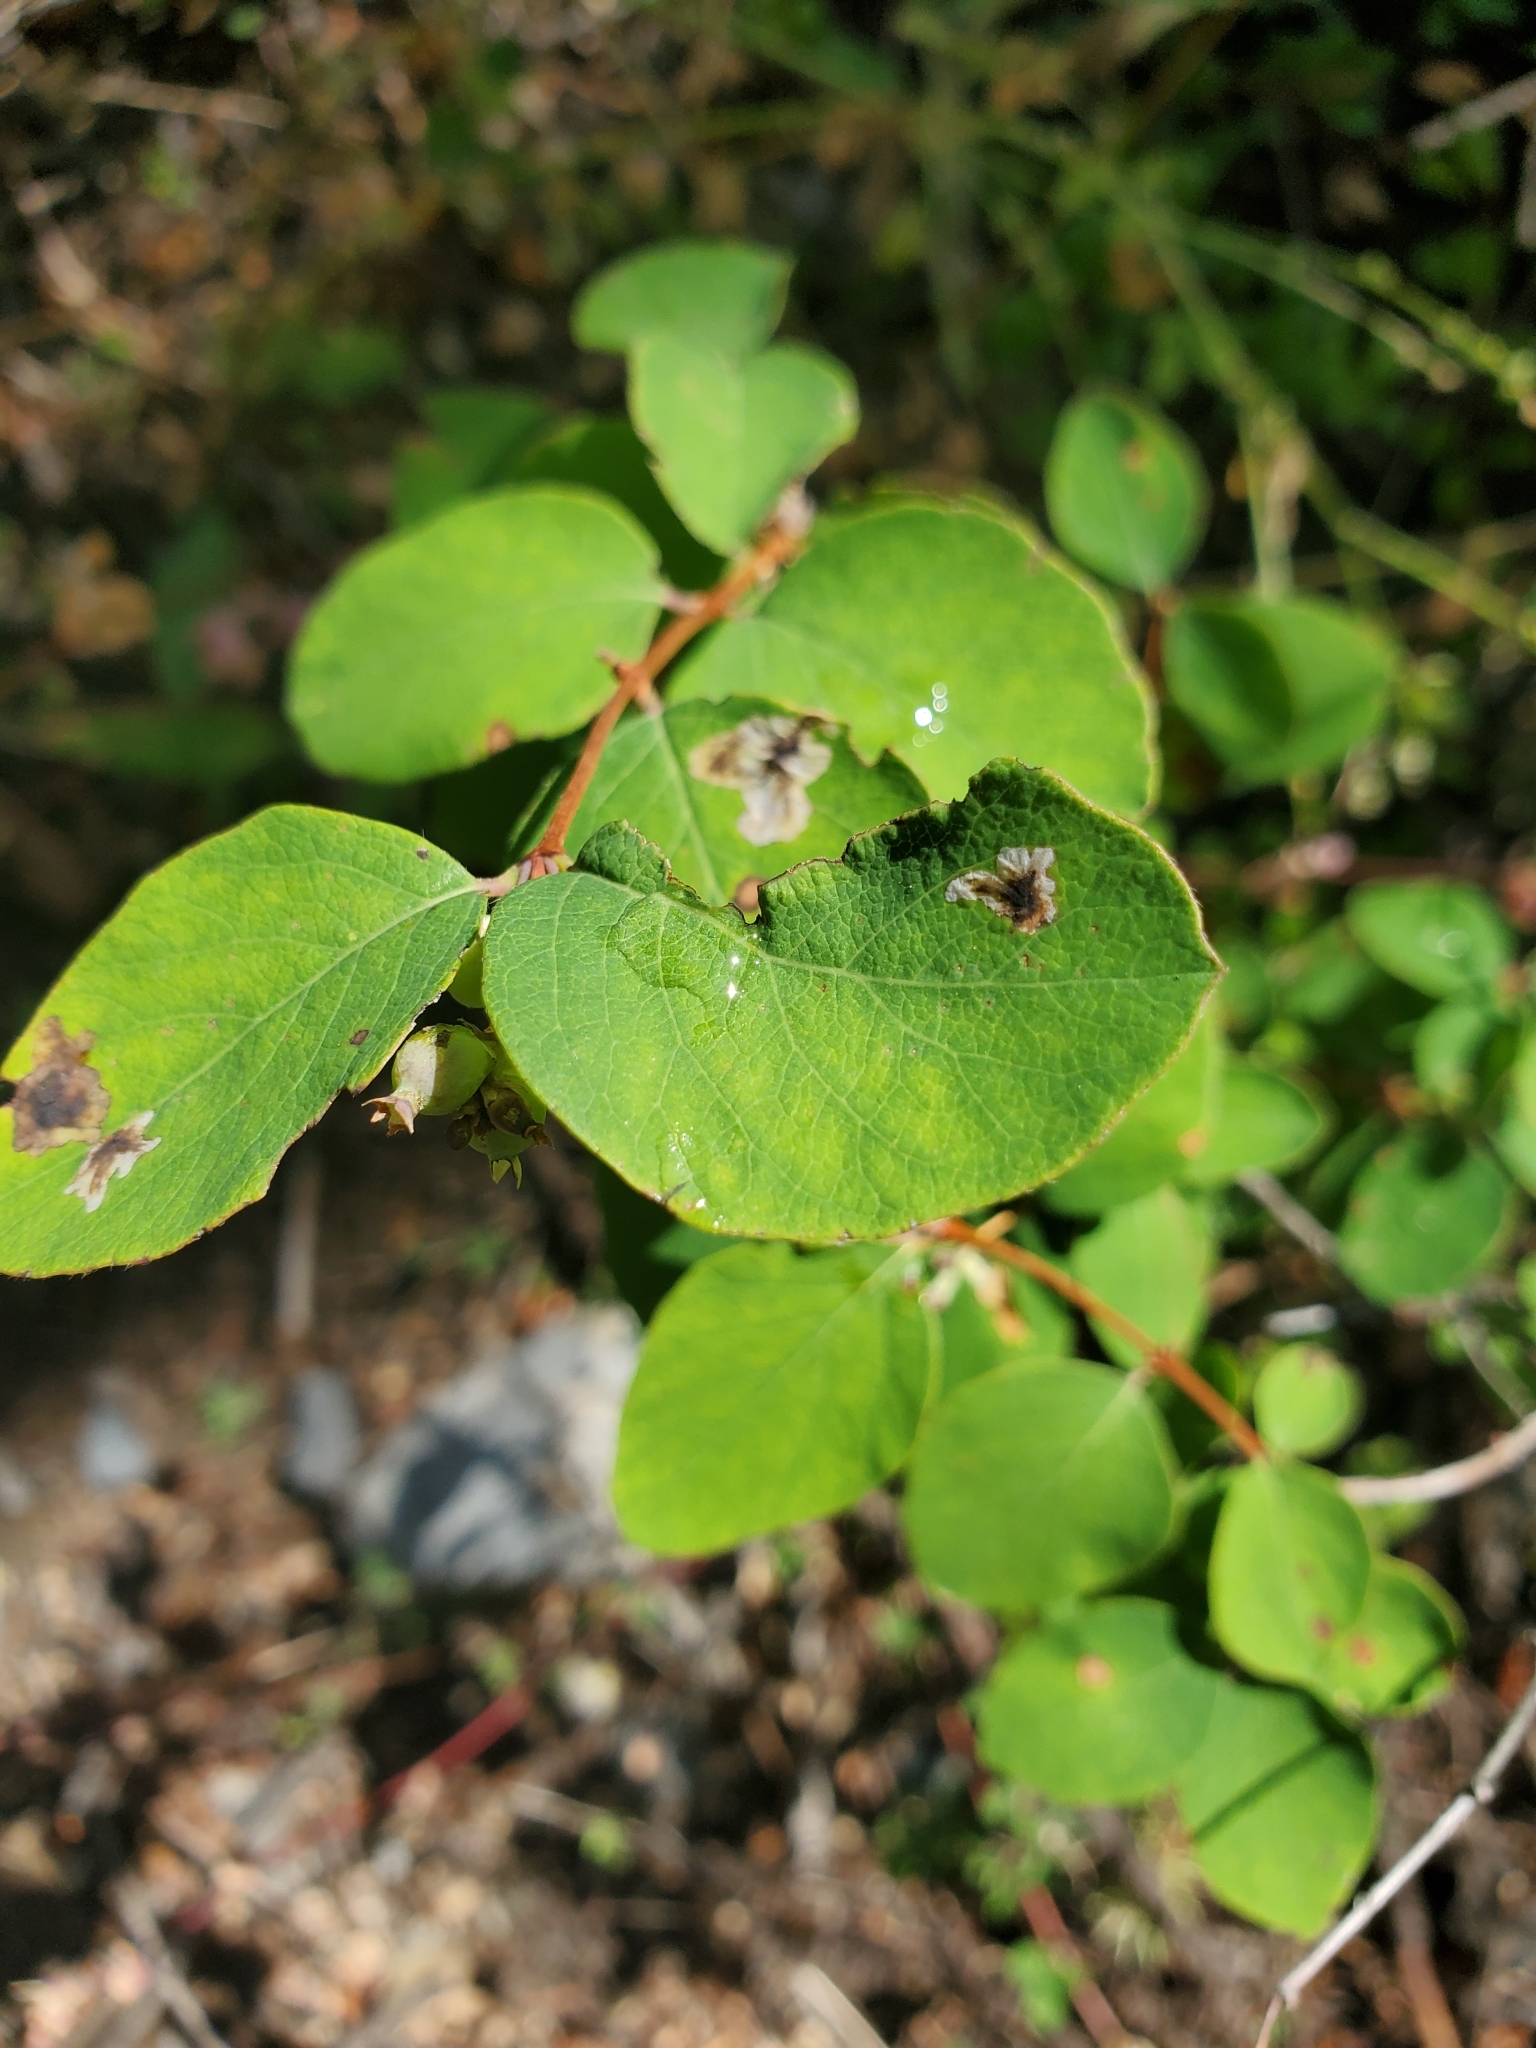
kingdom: Plantae
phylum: Tracheophyta
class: Magnoliopsida
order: Dipsacales
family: Caprifoliaceae
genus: Symphoricarpos
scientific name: Symphoricarpos albus
